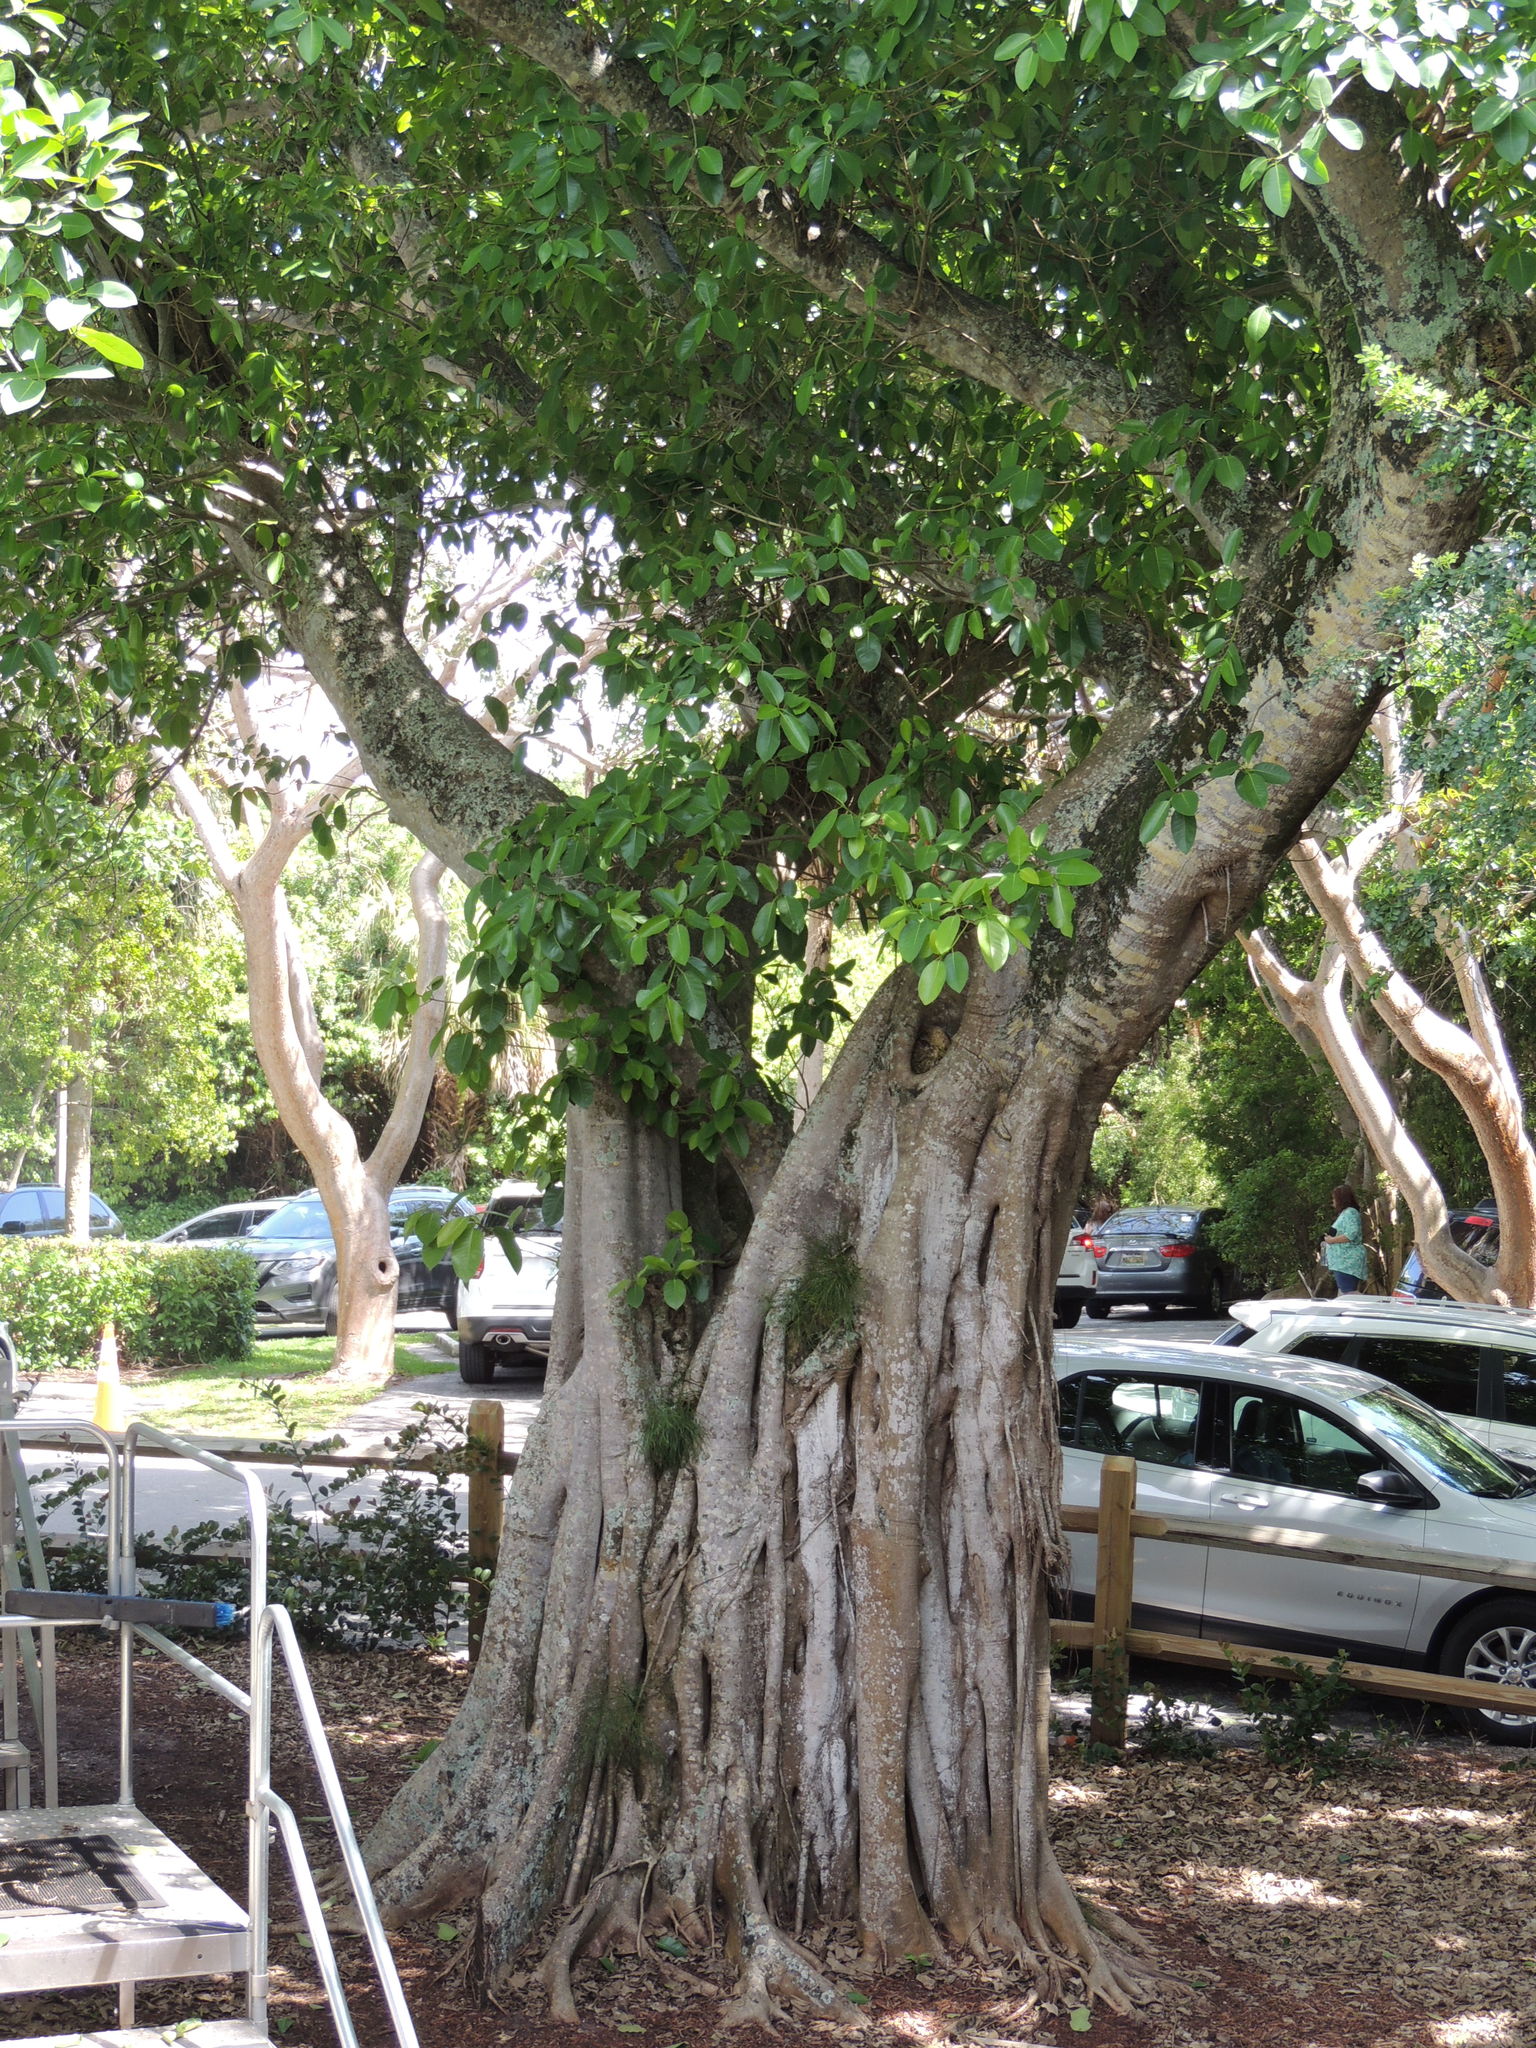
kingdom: Plantae
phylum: Tracheophyta
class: Magnoliopsida
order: Rosales
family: Moraceae
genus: Ficus
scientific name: Ficus aurea
